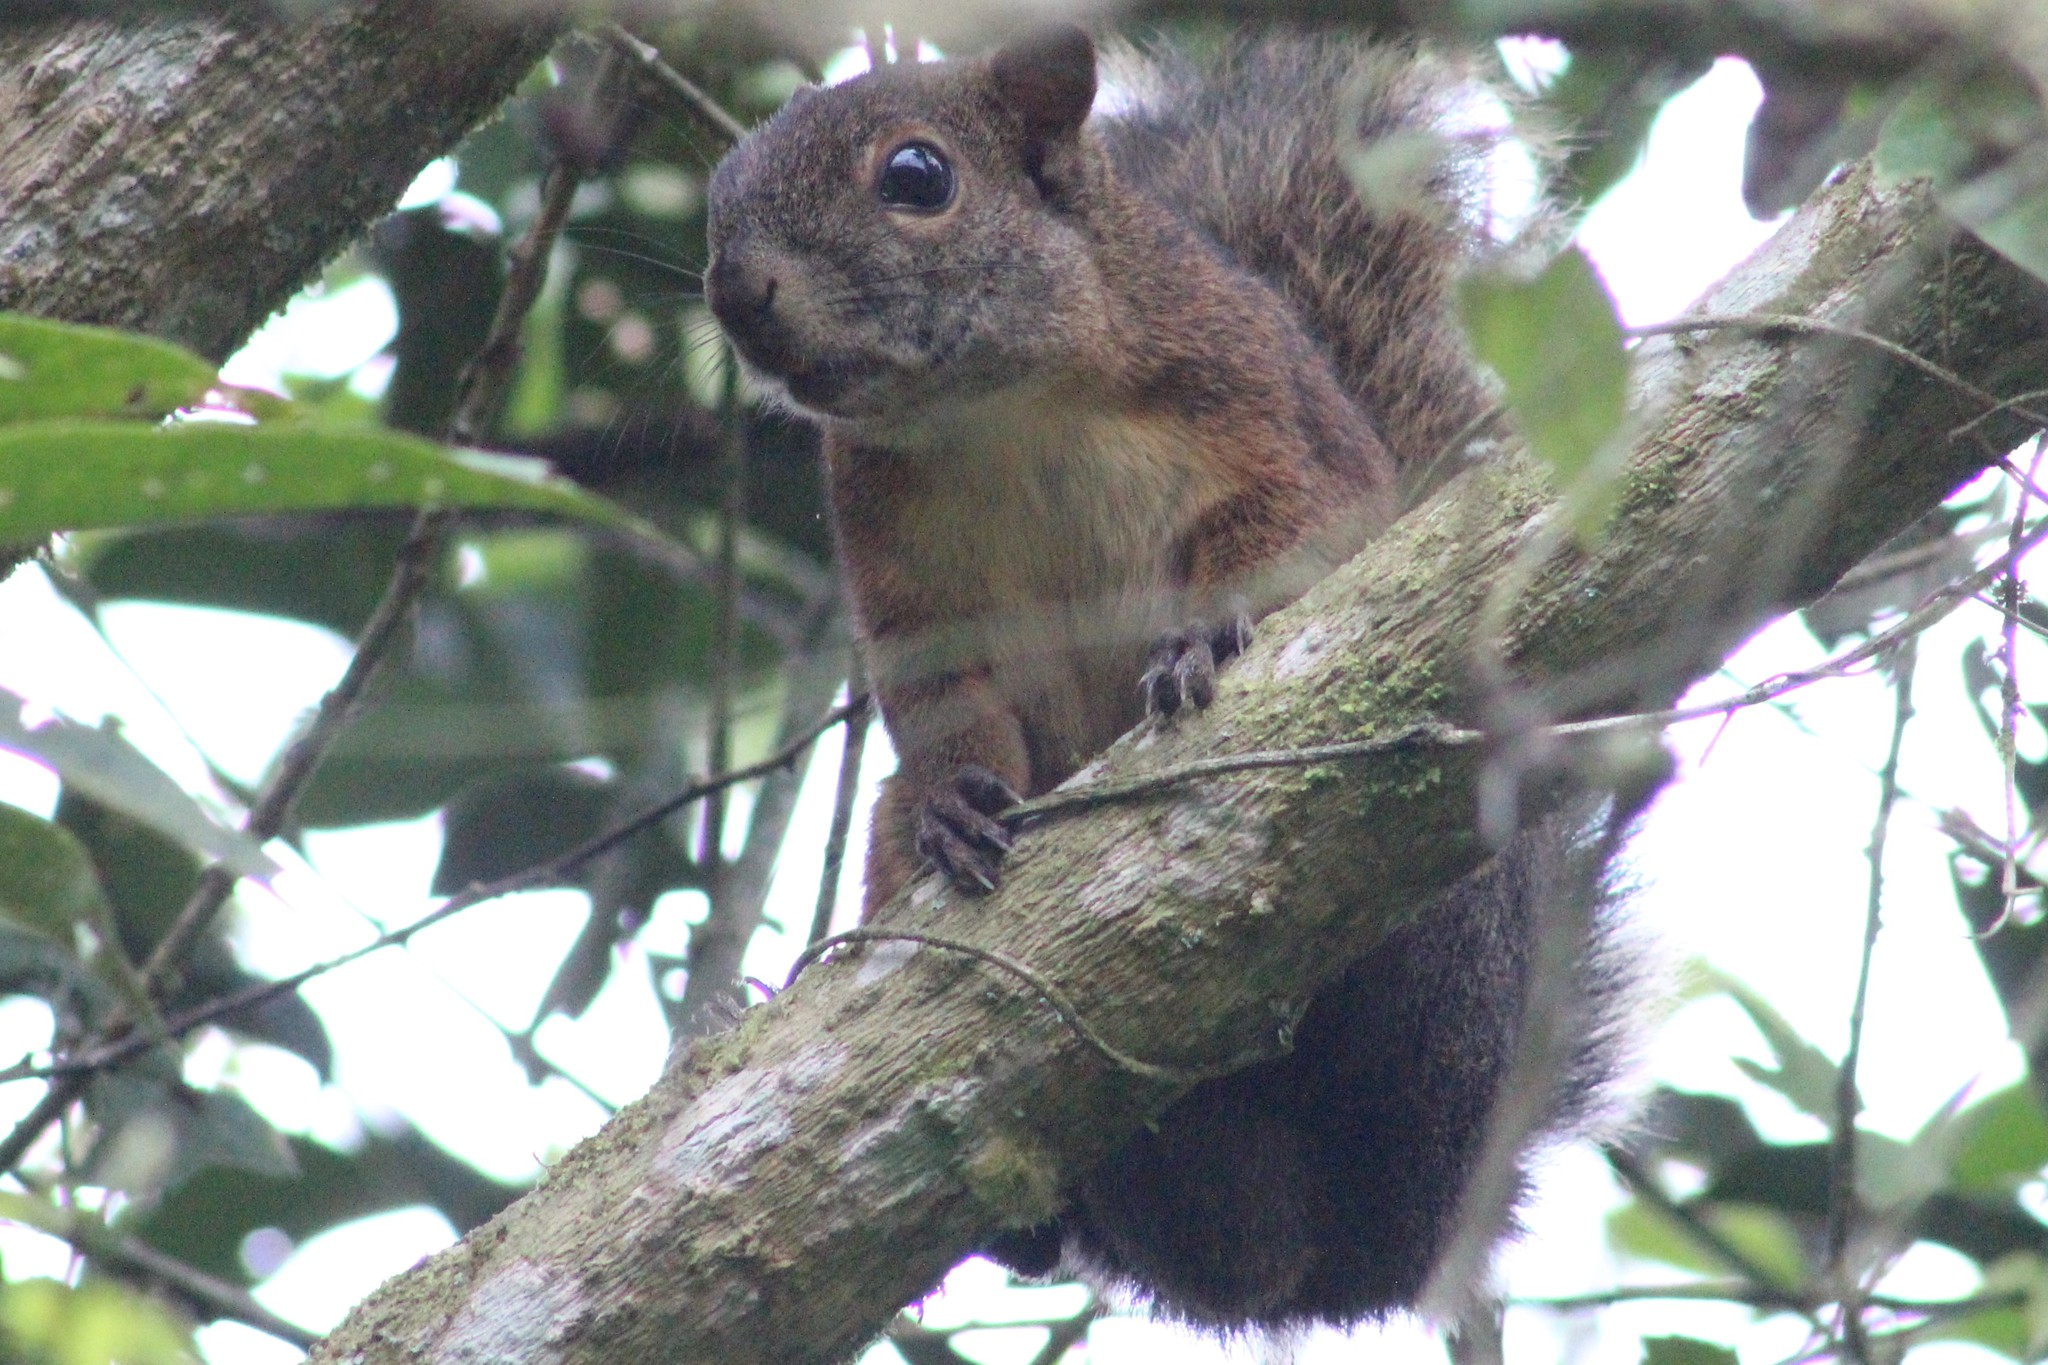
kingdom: Animalia
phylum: Chordata
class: Mammalia
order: Rodentia
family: Sciuridae
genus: Sciurus
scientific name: Sciurus granatensis
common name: Red-tailed squirrel
